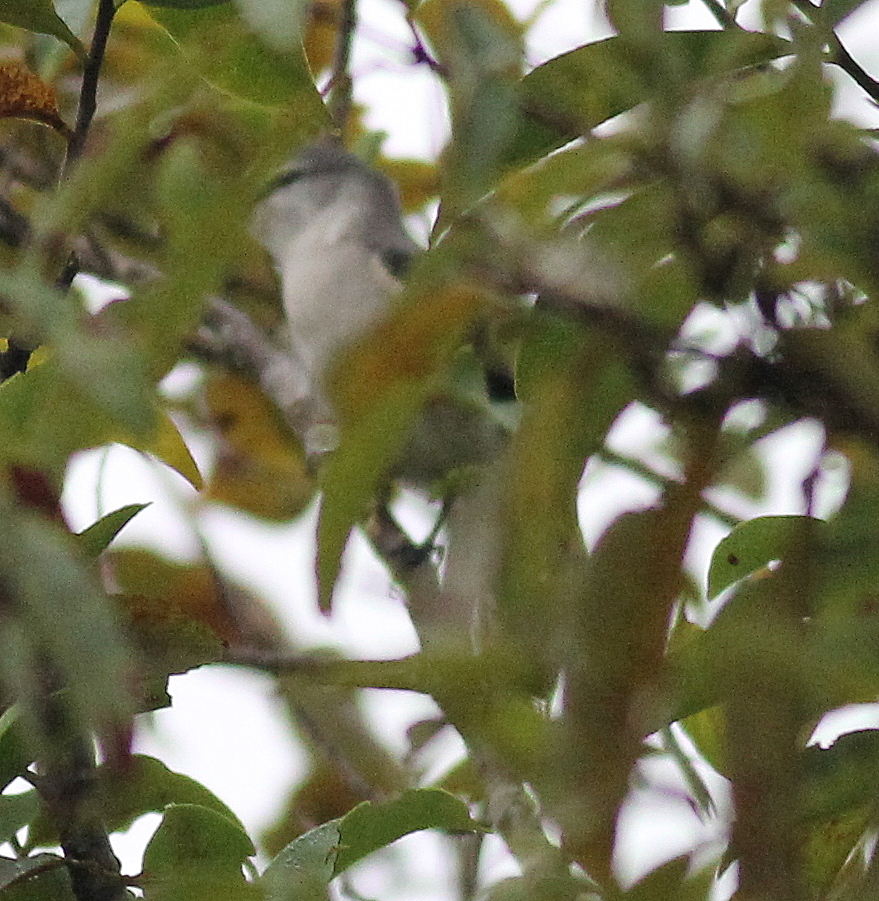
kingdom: Animalia
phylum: Chordata
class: Aves
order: Passeriformes
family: Campephagidae
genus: Pericrocotus
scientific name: Pericrocotus cantonensis
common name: Swinhoe's minivet
